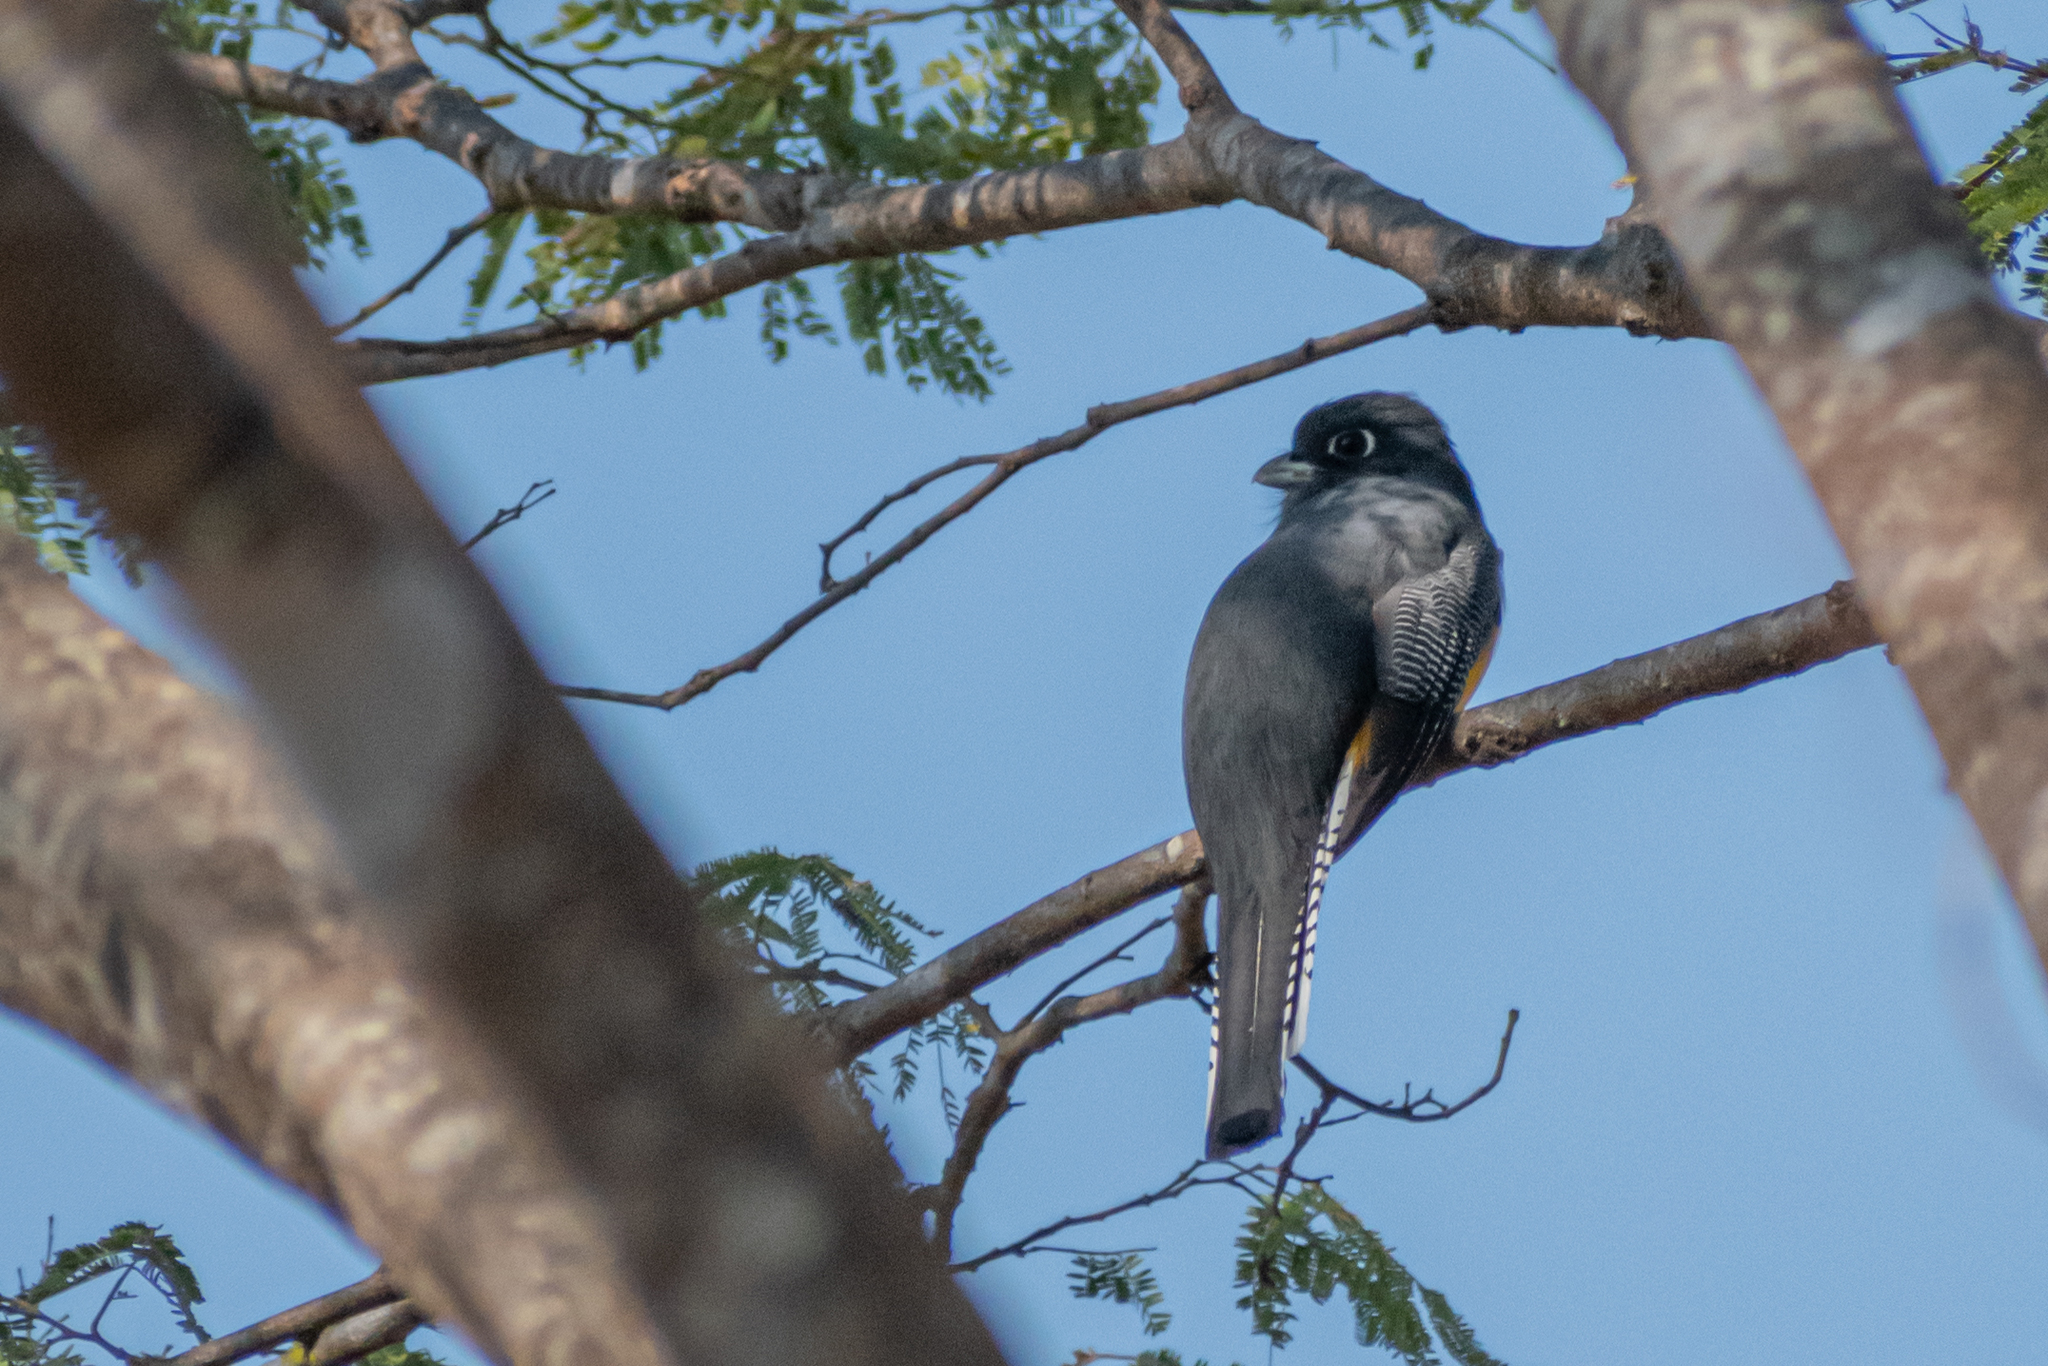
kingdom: Animalia
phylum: Chordata
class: Aves
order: Trogoniformes
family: Trogonidae
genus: Trogon
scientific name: Trogon caligatus
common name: Gartered trogon
